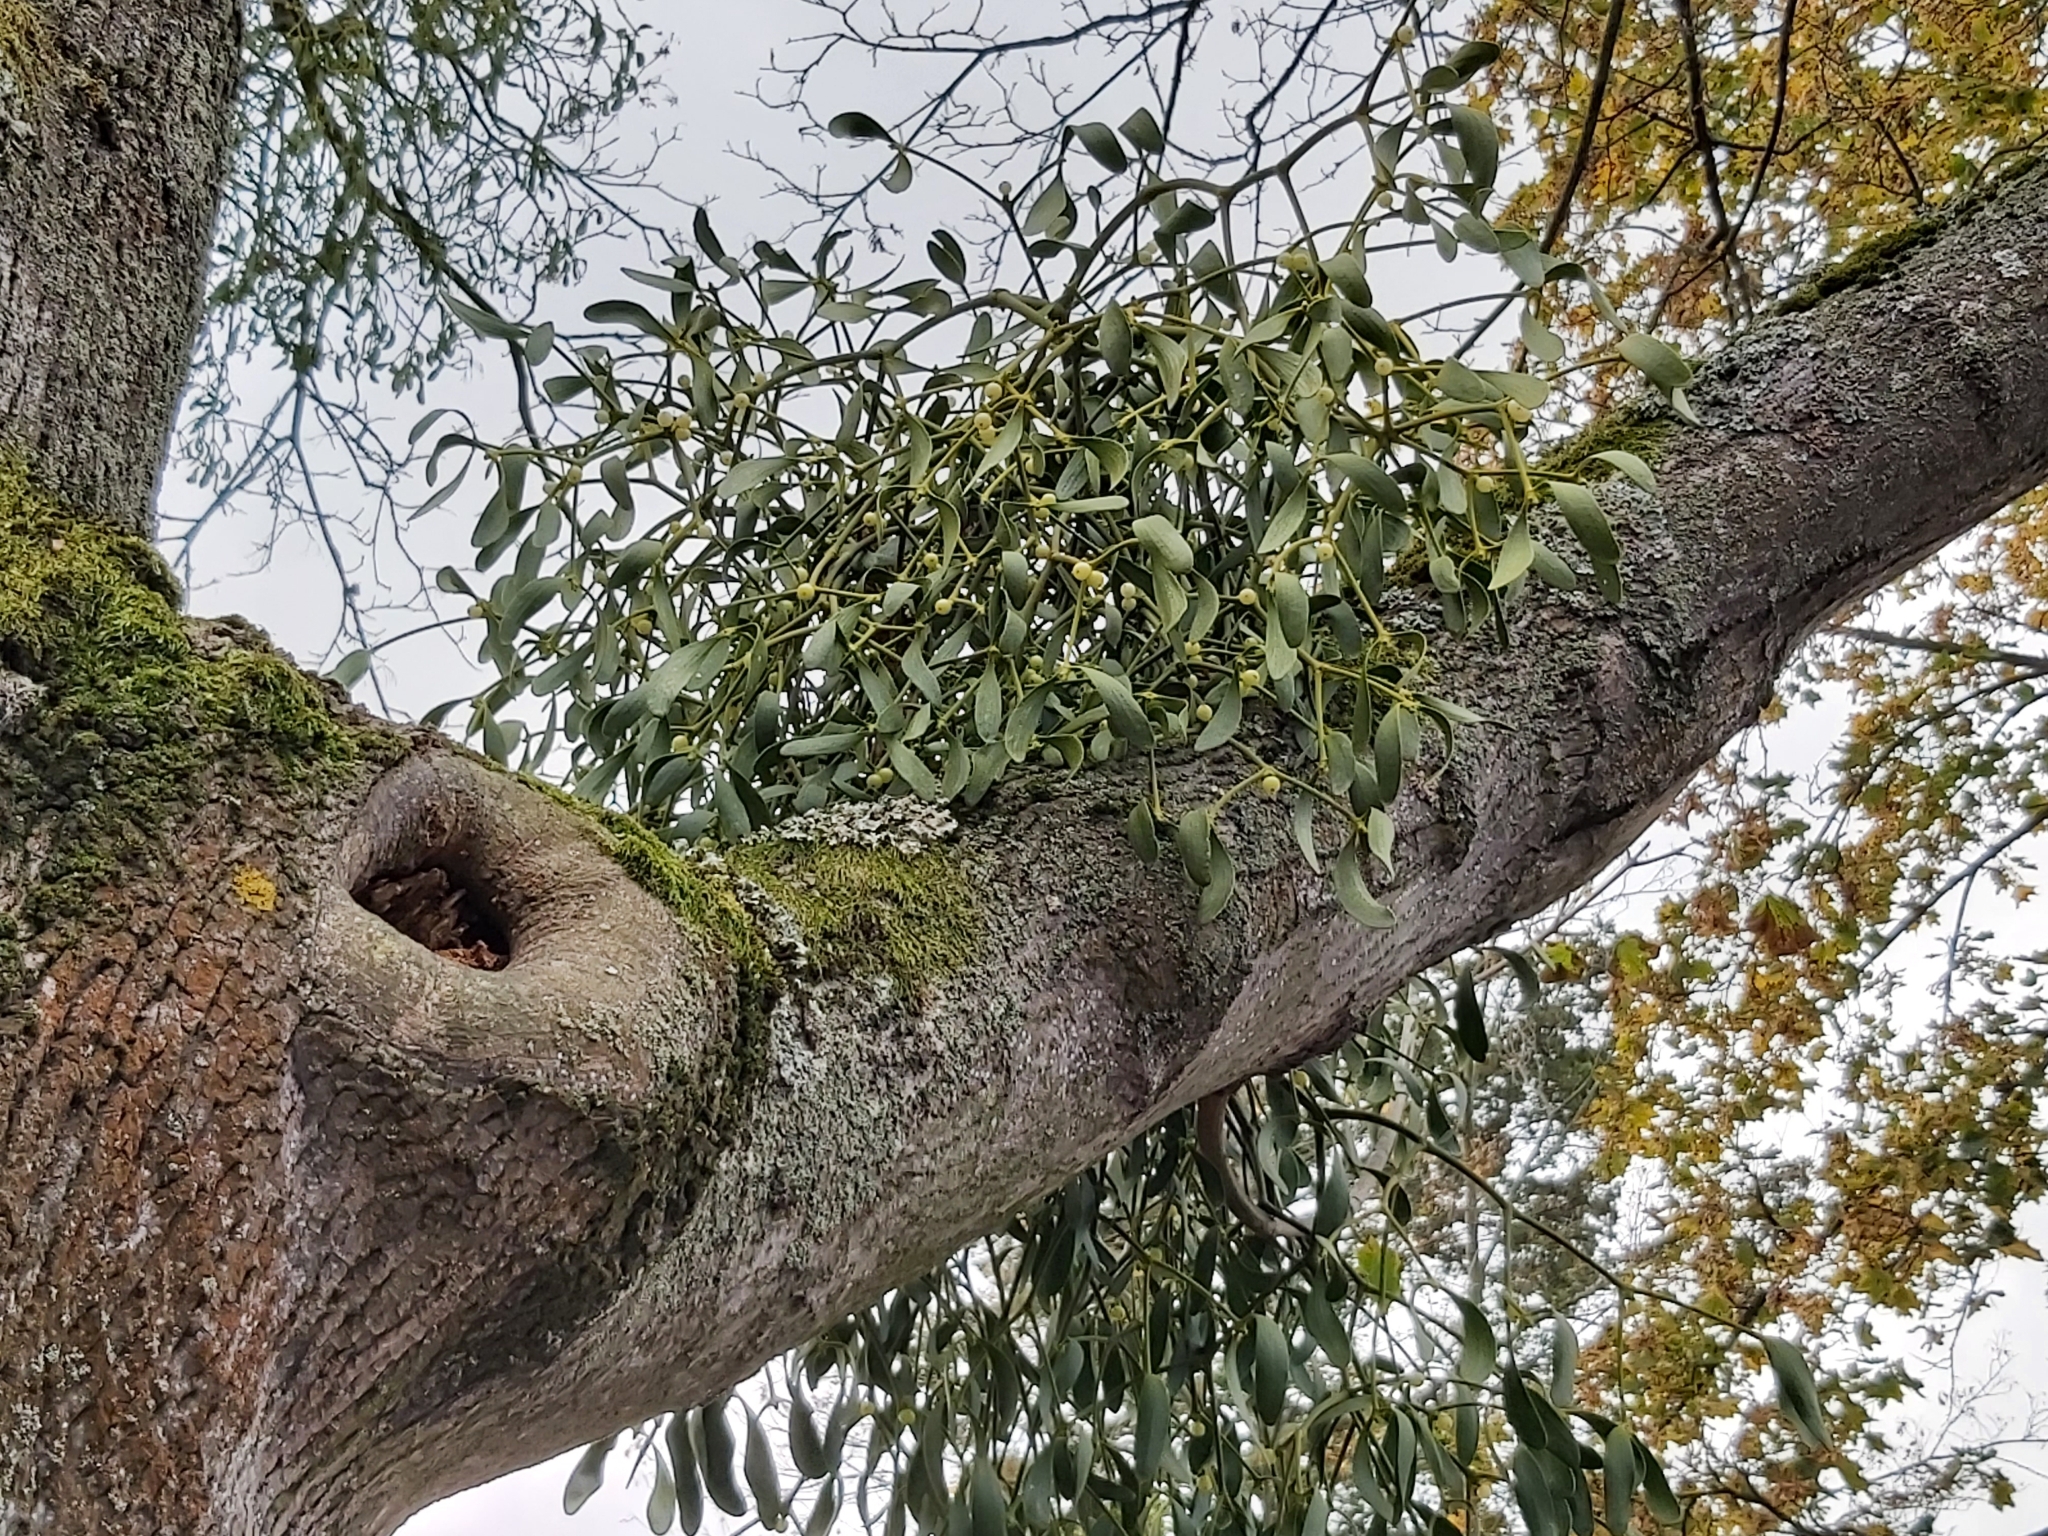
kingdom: Plantae
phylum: Tracheophyta
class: Magnoliopsida
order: Santalales
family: Viscaceae
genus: Viscum
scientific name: Viscum album
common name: Mistletoe
